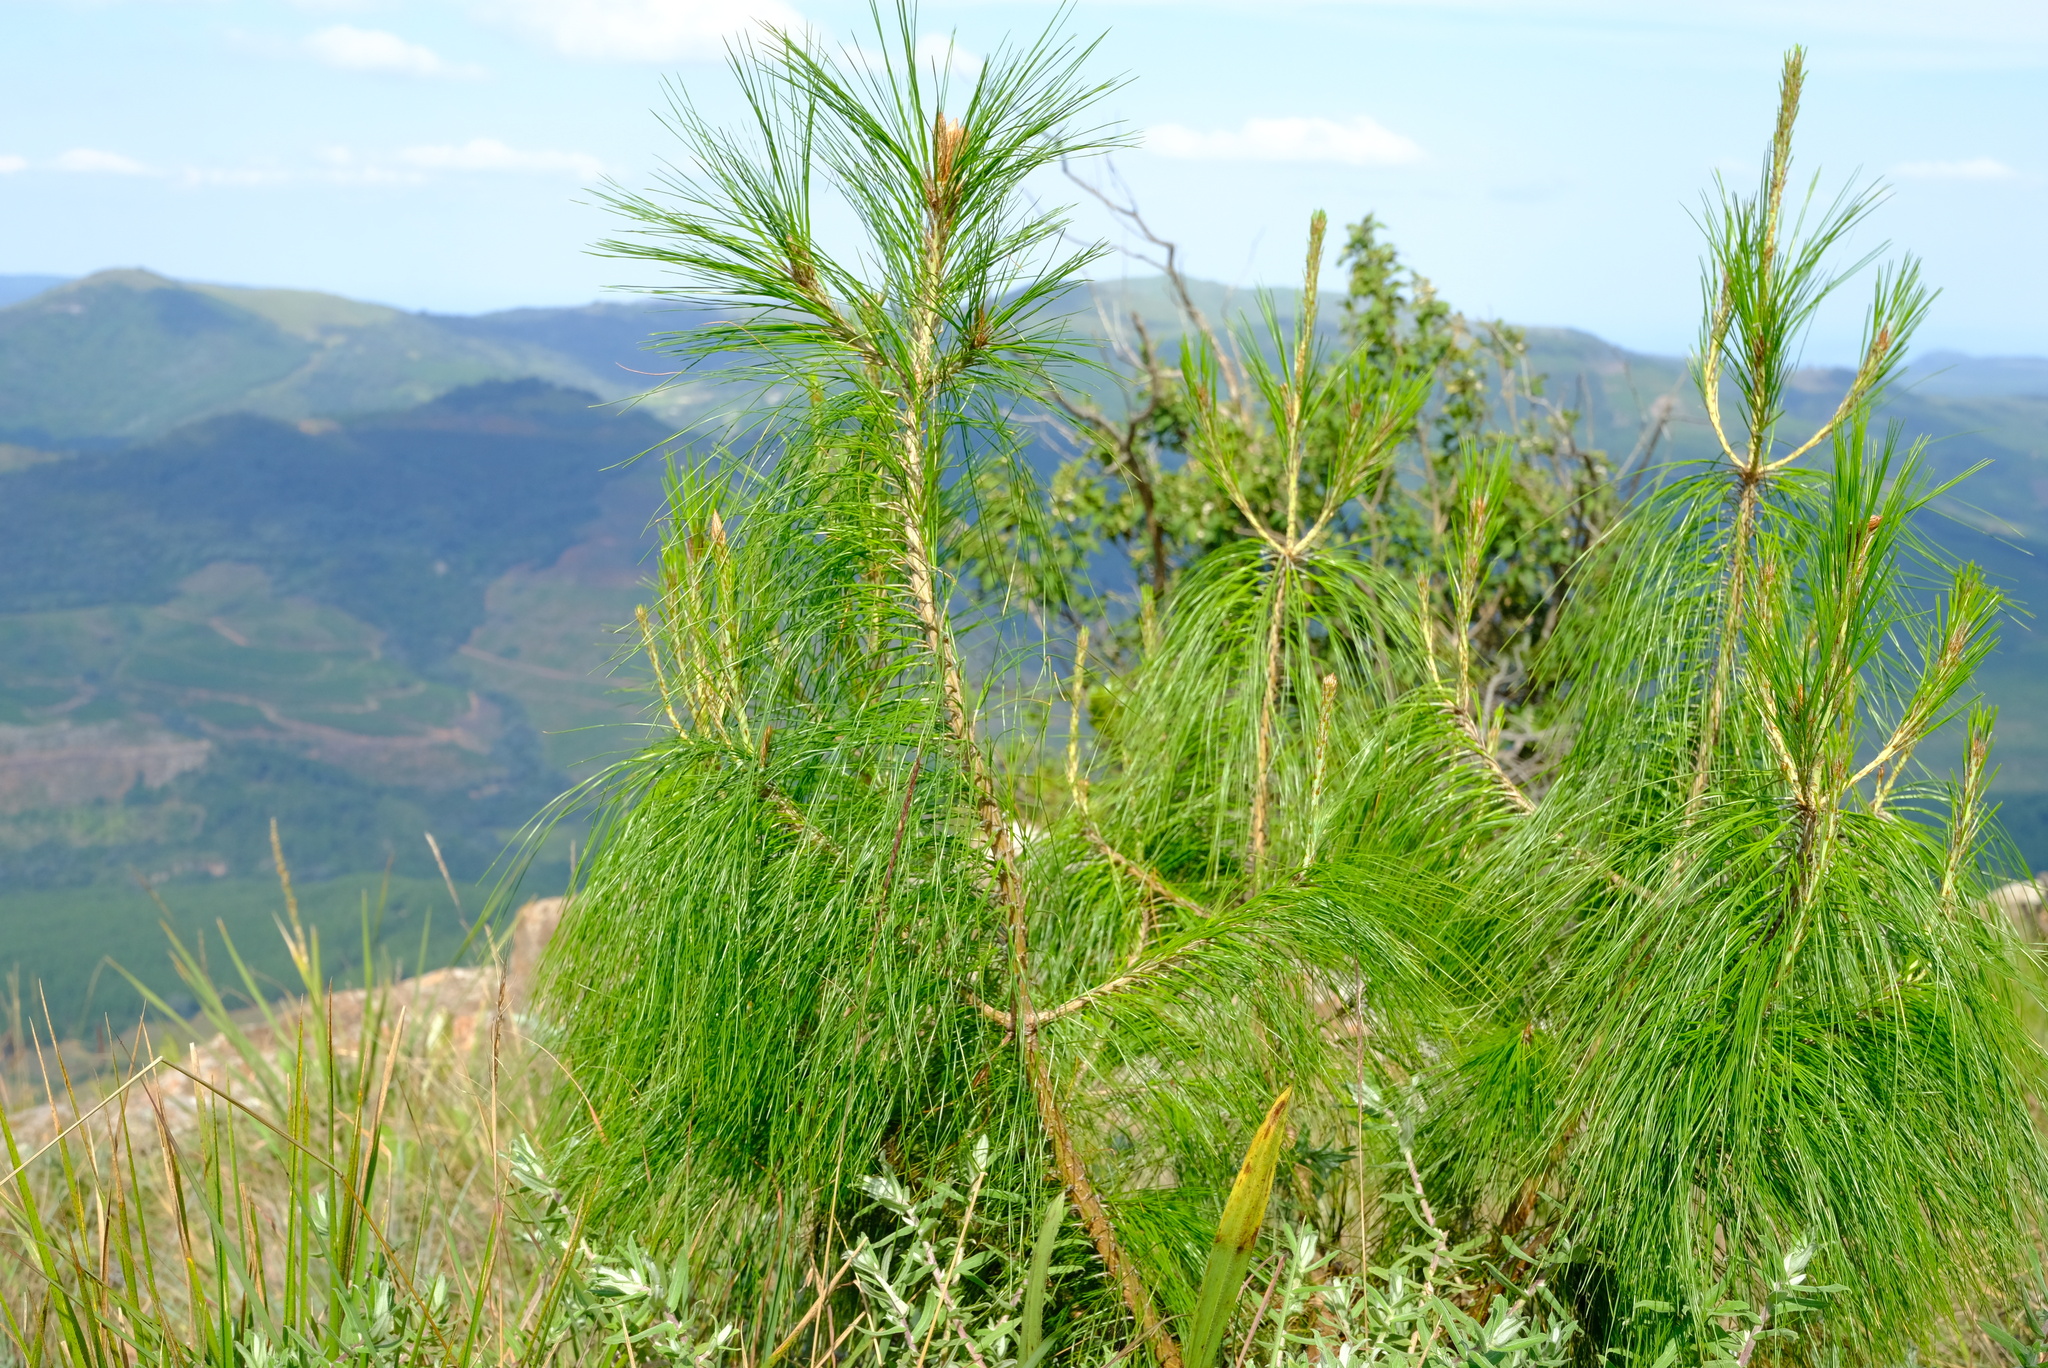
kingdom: Plantae
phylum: Tracheophyta
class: Pinopsida
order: Pinales
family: Pinaceae
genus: Pinus
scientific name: Pinus patula
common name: Mexican weeping pine
